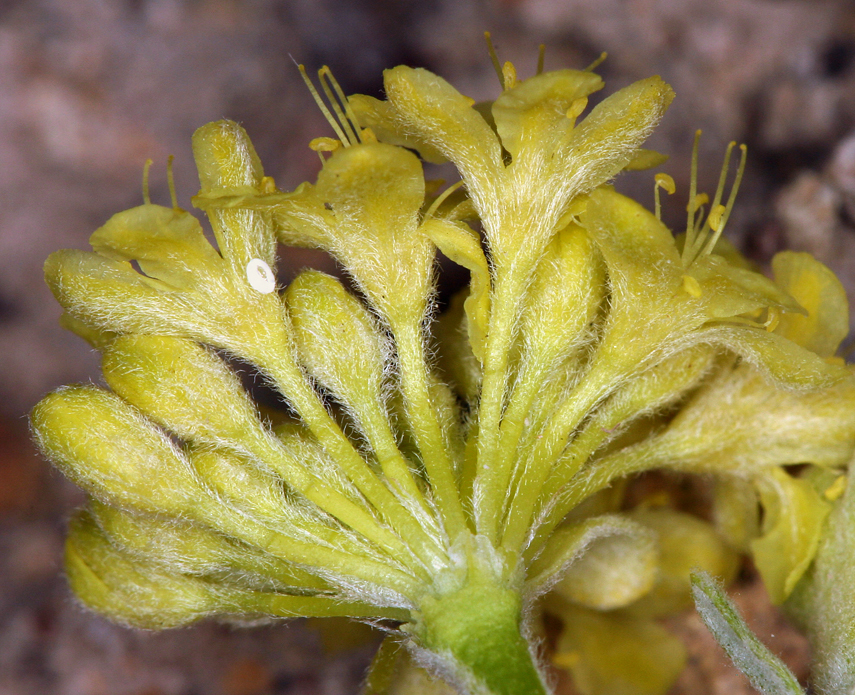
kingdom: Plantae
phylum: Tracheophyta
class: Magnoliopsida
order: Caryophyllales
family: Polygonaceae
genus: Eriogonum
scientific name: Eriogonum sphaerocephalum
